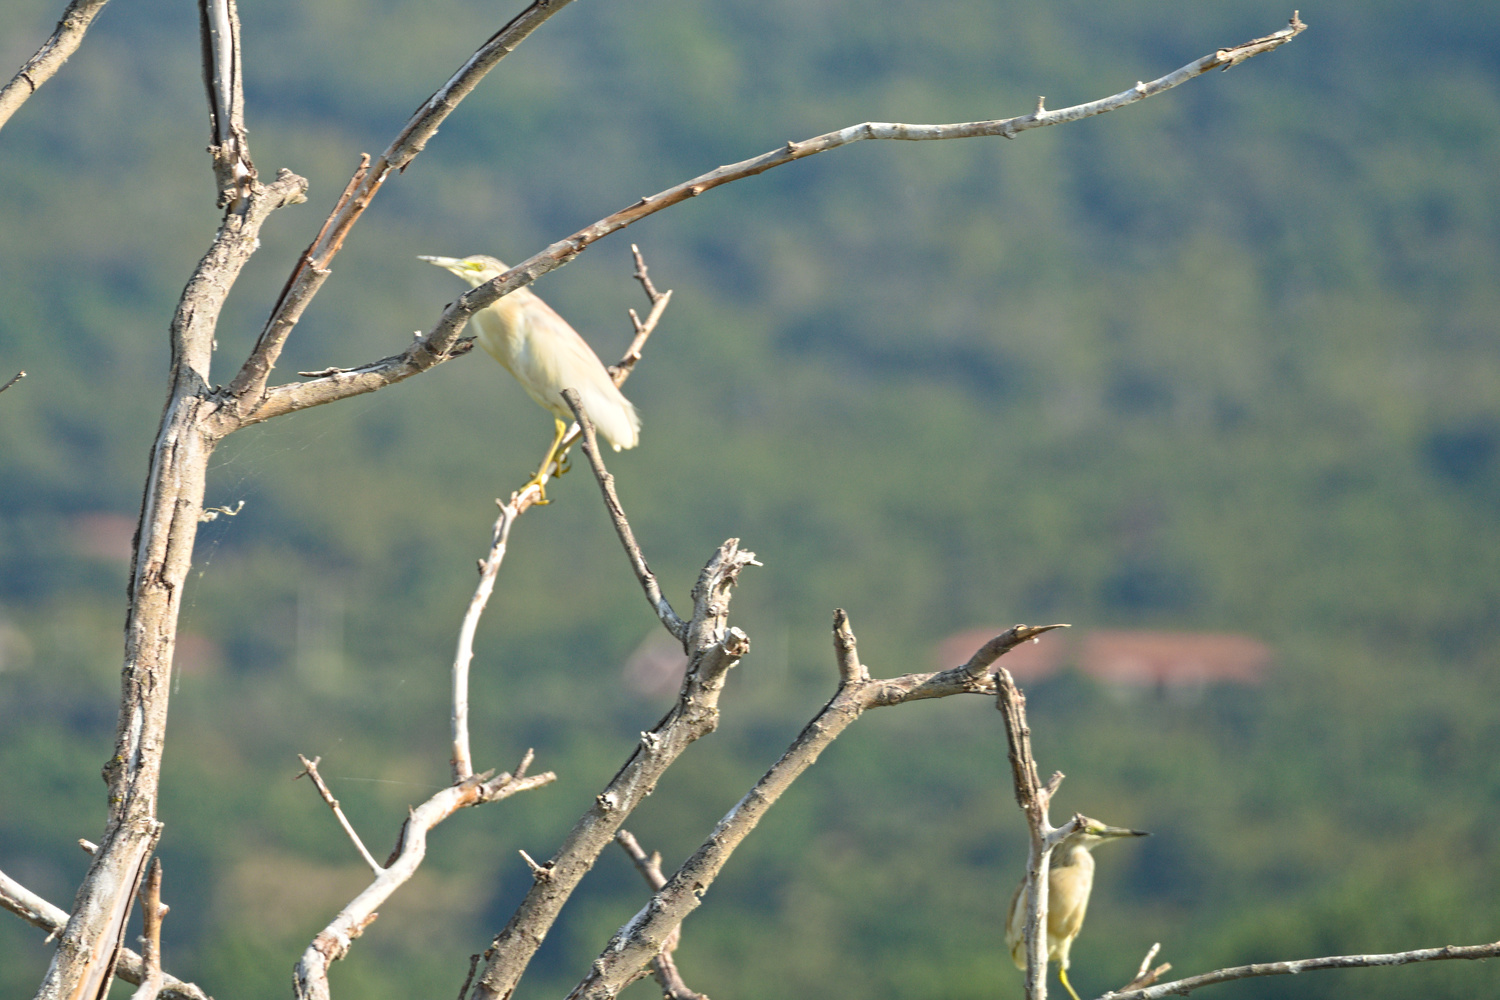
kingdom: Animalia
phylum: Chordata
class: Aves
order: Pelecaniformes
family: Ardeidae
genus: Ardeola
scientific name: Ardeola ralloides
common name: Squacco heron
